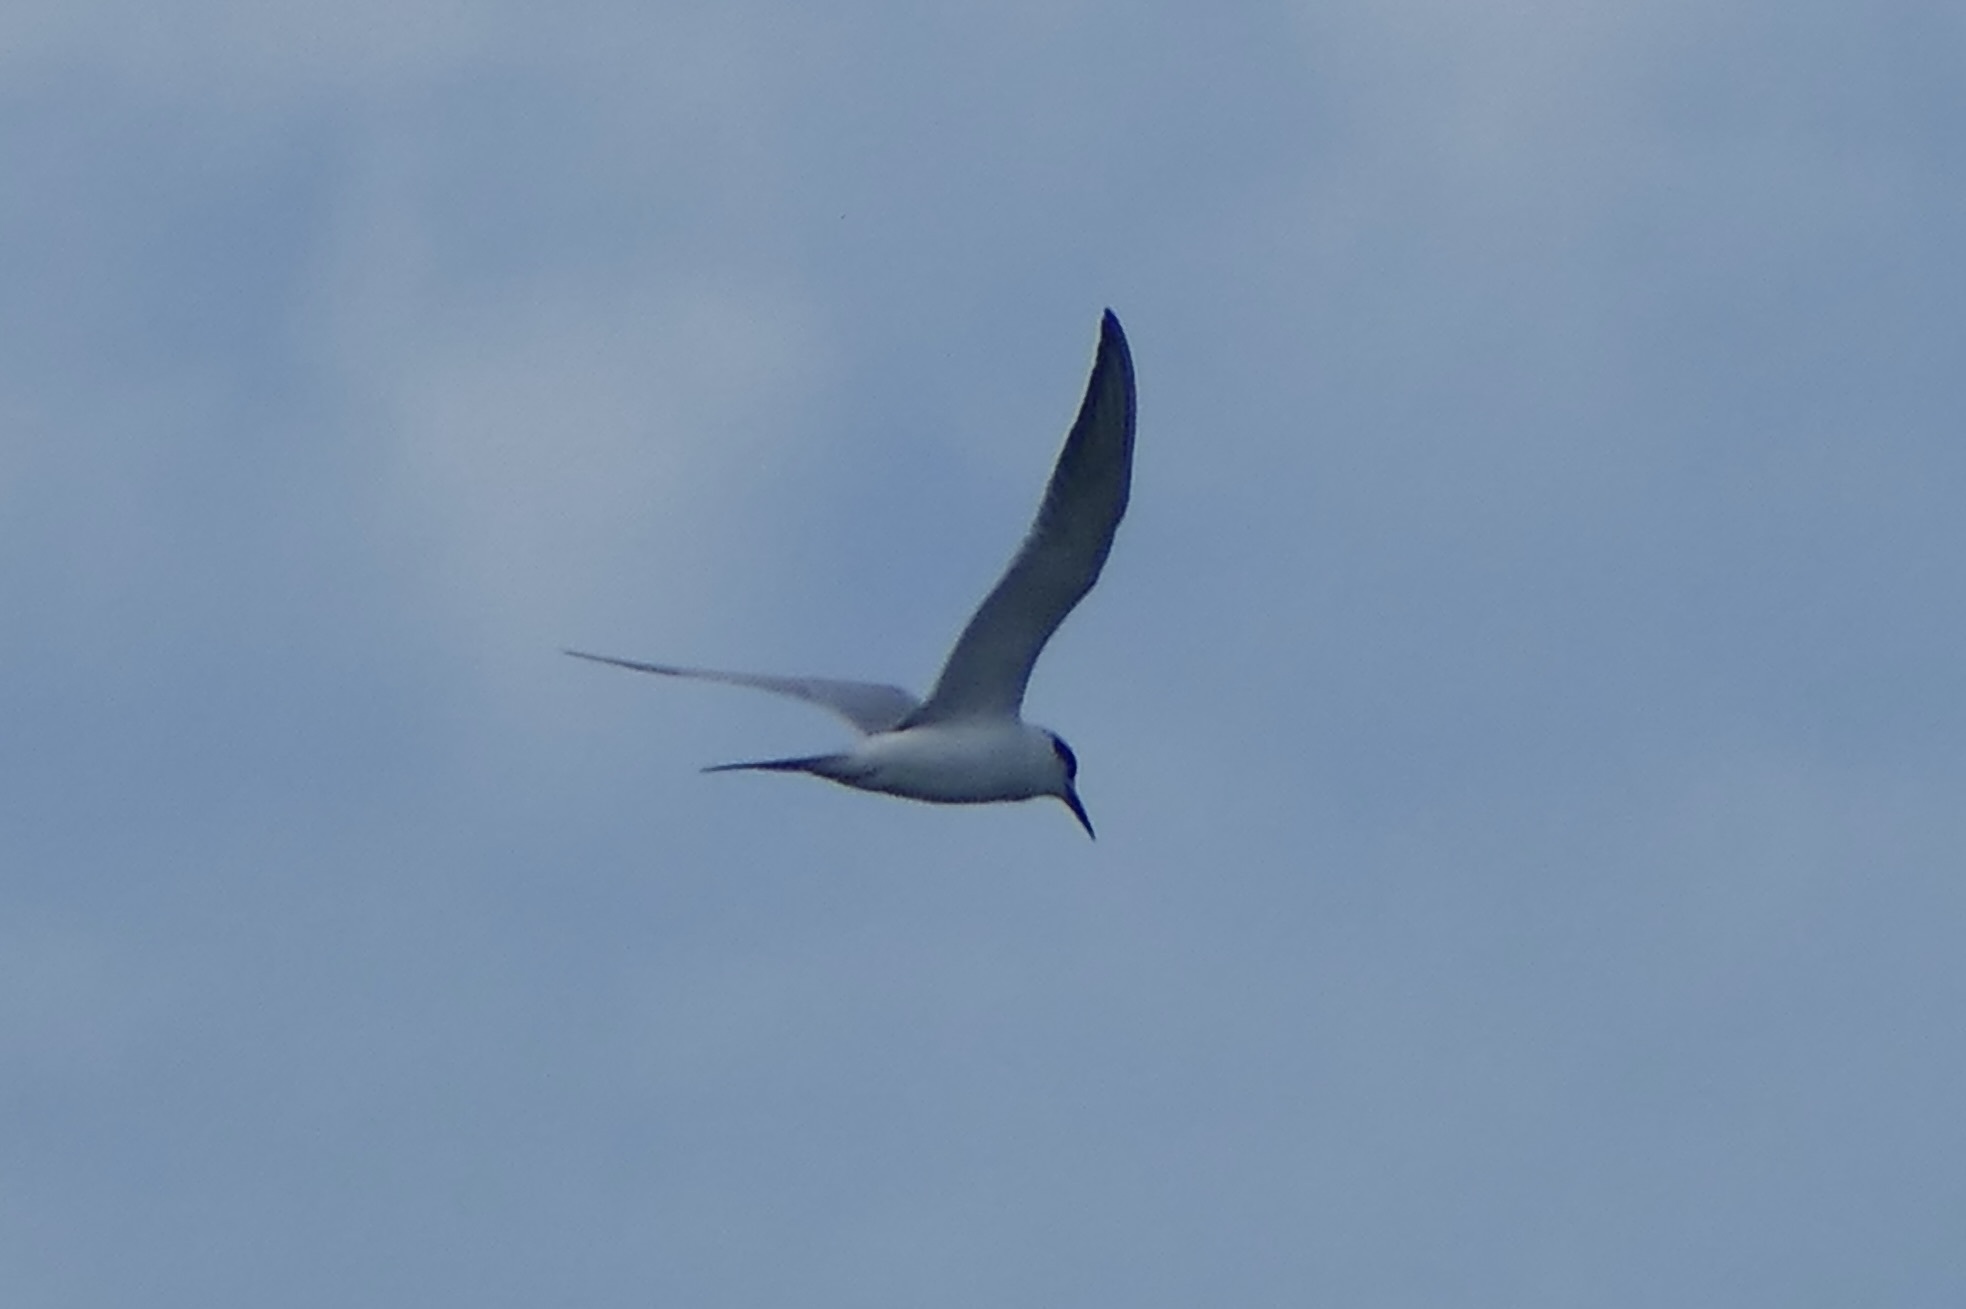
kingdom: Animalia
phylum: Chordata
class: Aves
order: Charadriiformes
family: Laridae
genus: Sterna
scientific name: Sterna forsteri
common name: Forster's tern
